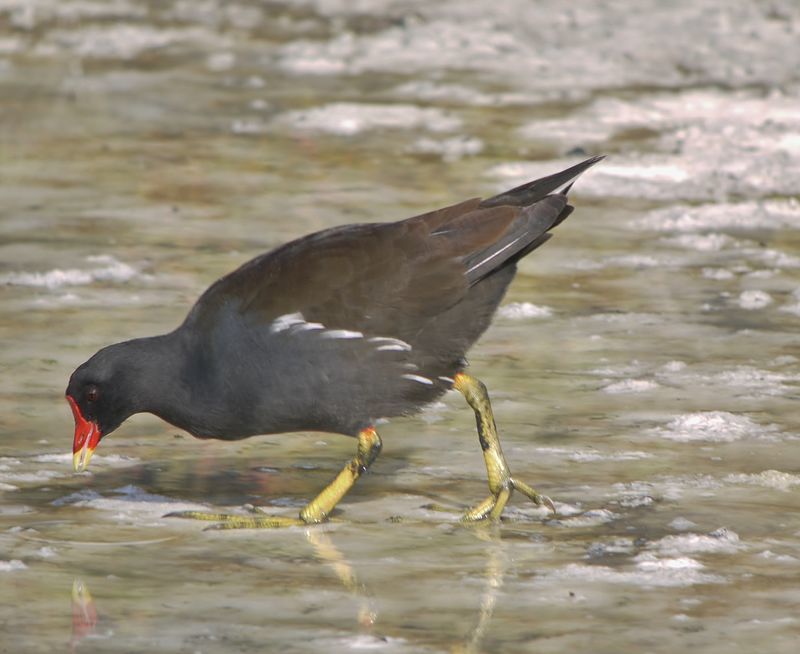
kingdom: Animalia
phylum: Chordata
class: Aves
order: Gruiformes
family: Rallidae
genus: Gallinula
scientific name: Gallinula chloropus
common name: Common moorhen
